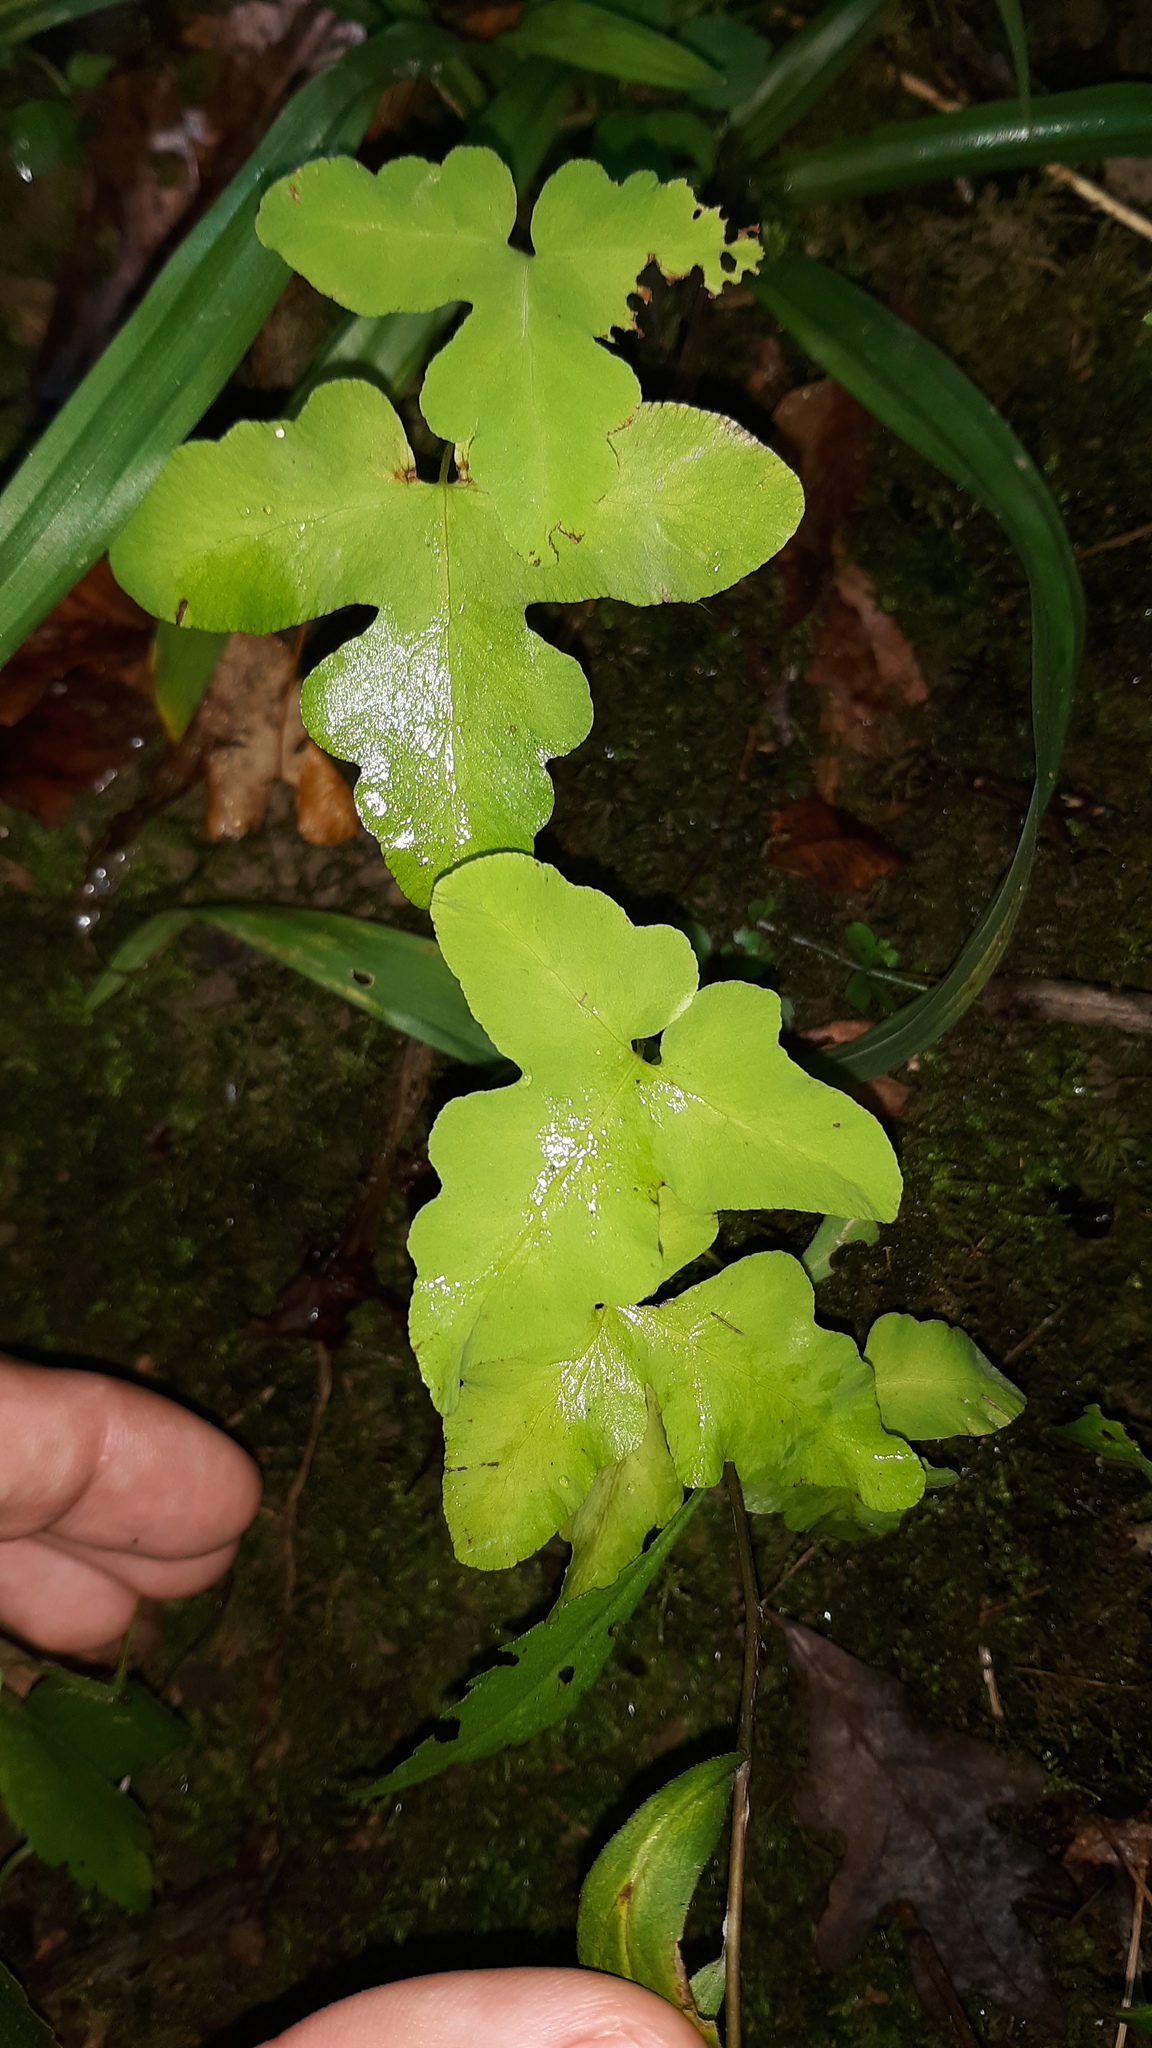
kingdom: Plantae
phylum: Tracheophyta
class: Polypodiopsida
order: Polypodiales
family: Onocleaceae
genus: Onoclea
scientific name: Onoclea sensibilis
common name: Sensitive fern
